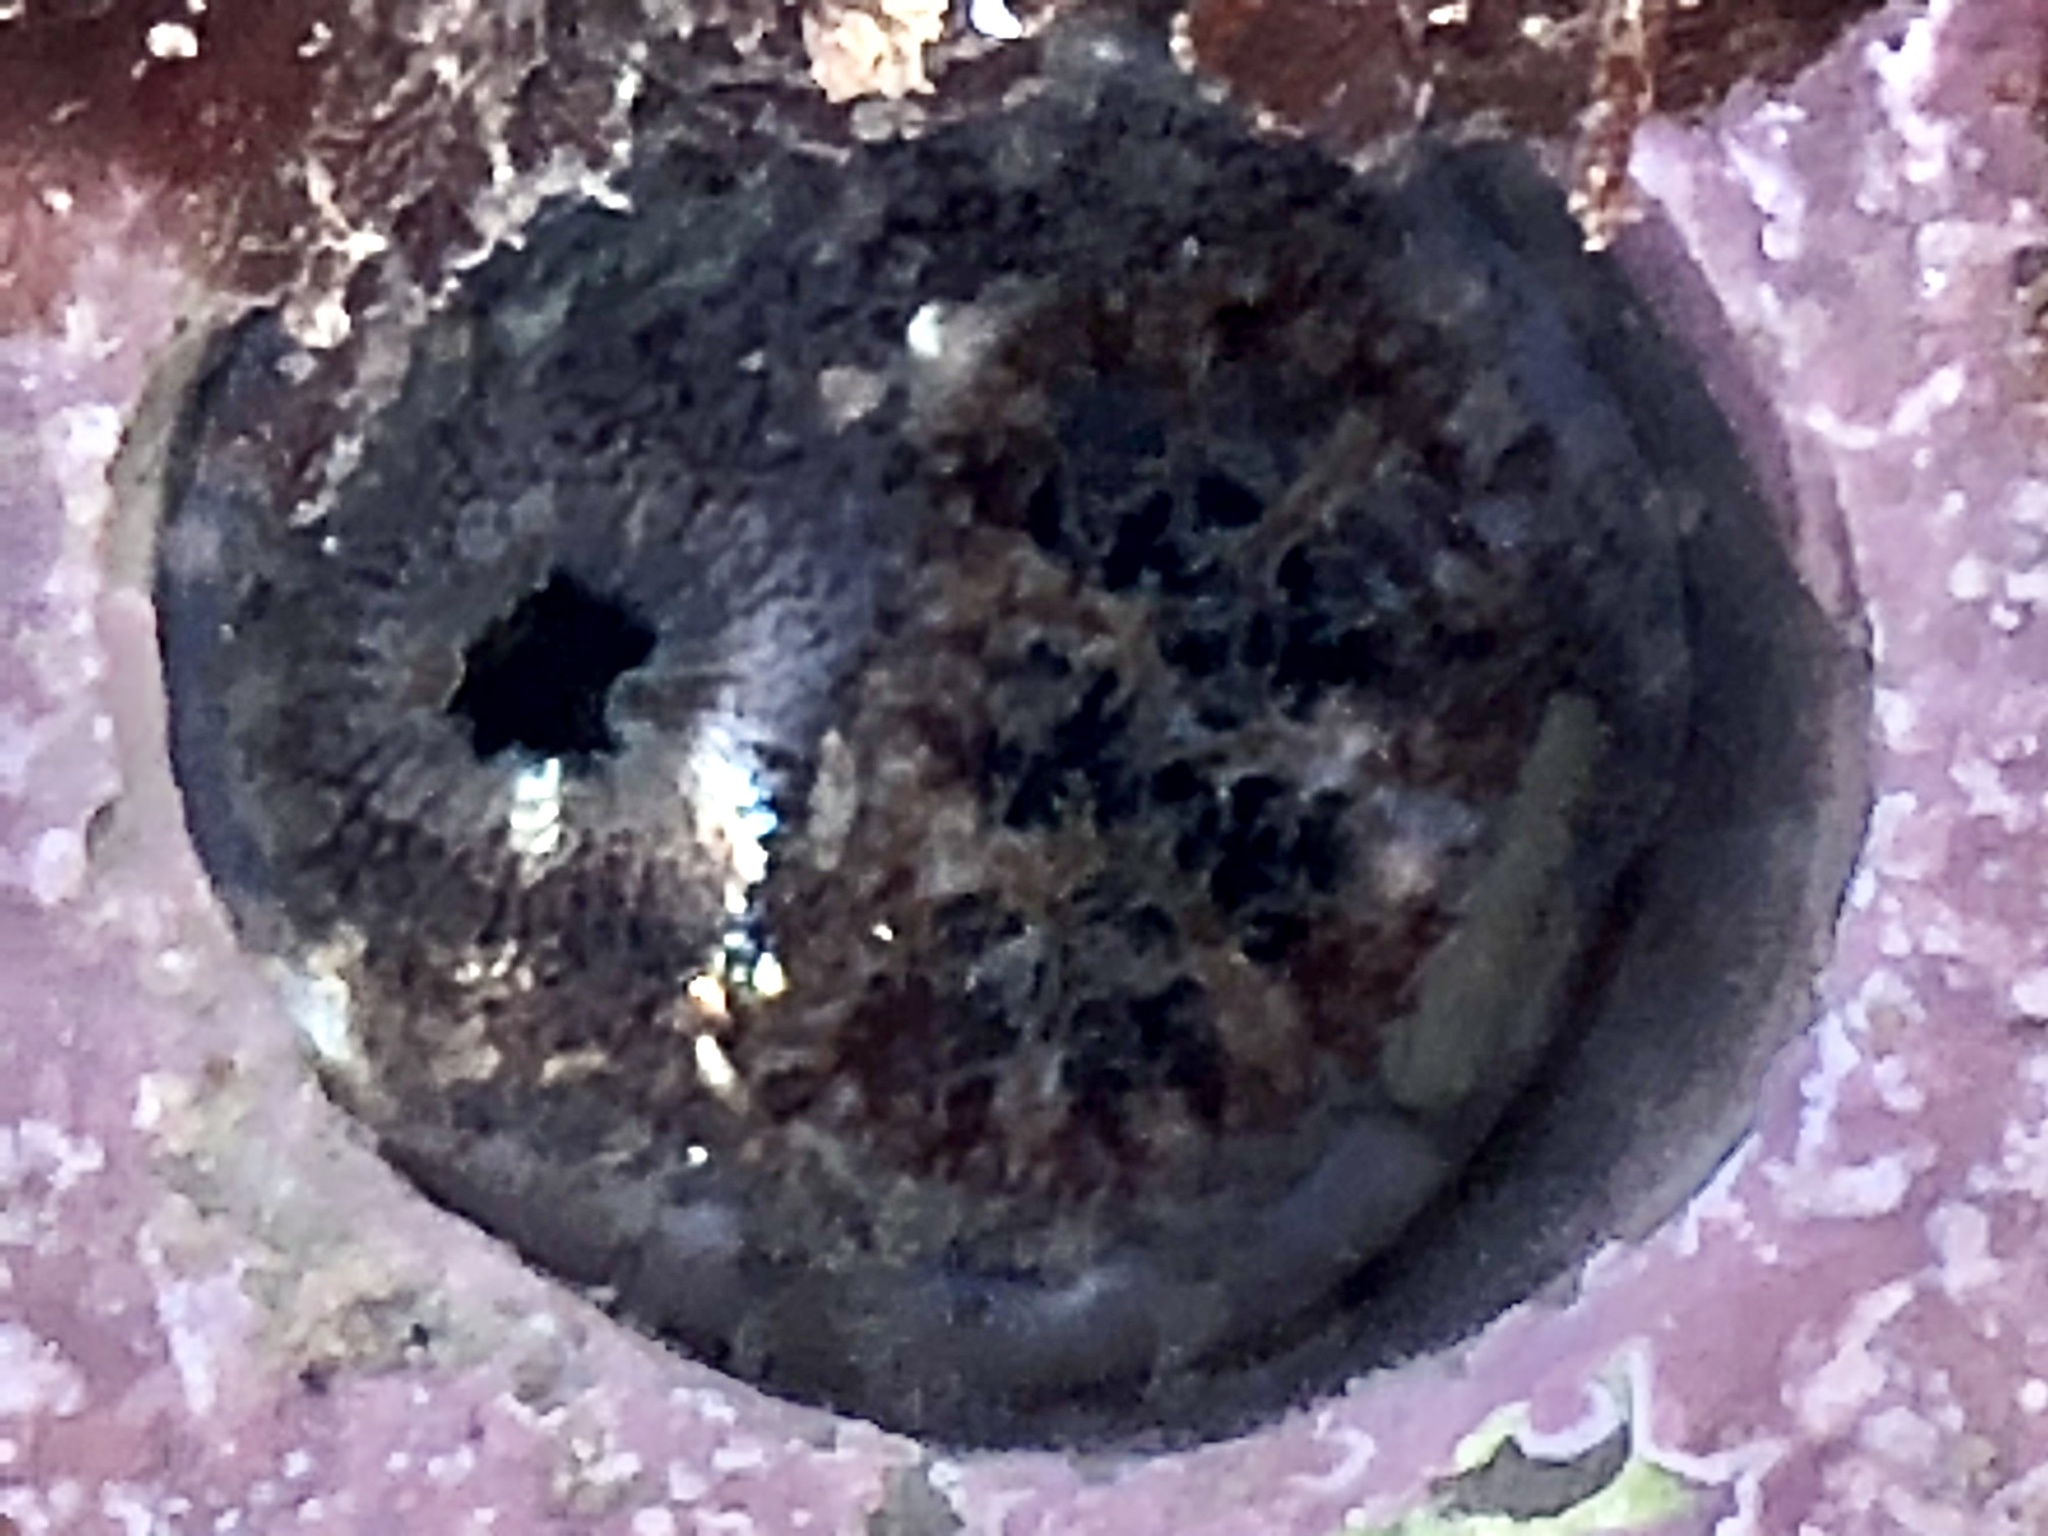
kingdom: Animalia
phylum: Mollusca
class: Bivalvia
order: Myida
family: Pholadidae
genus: Parapholas
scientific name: Parapholas californica
